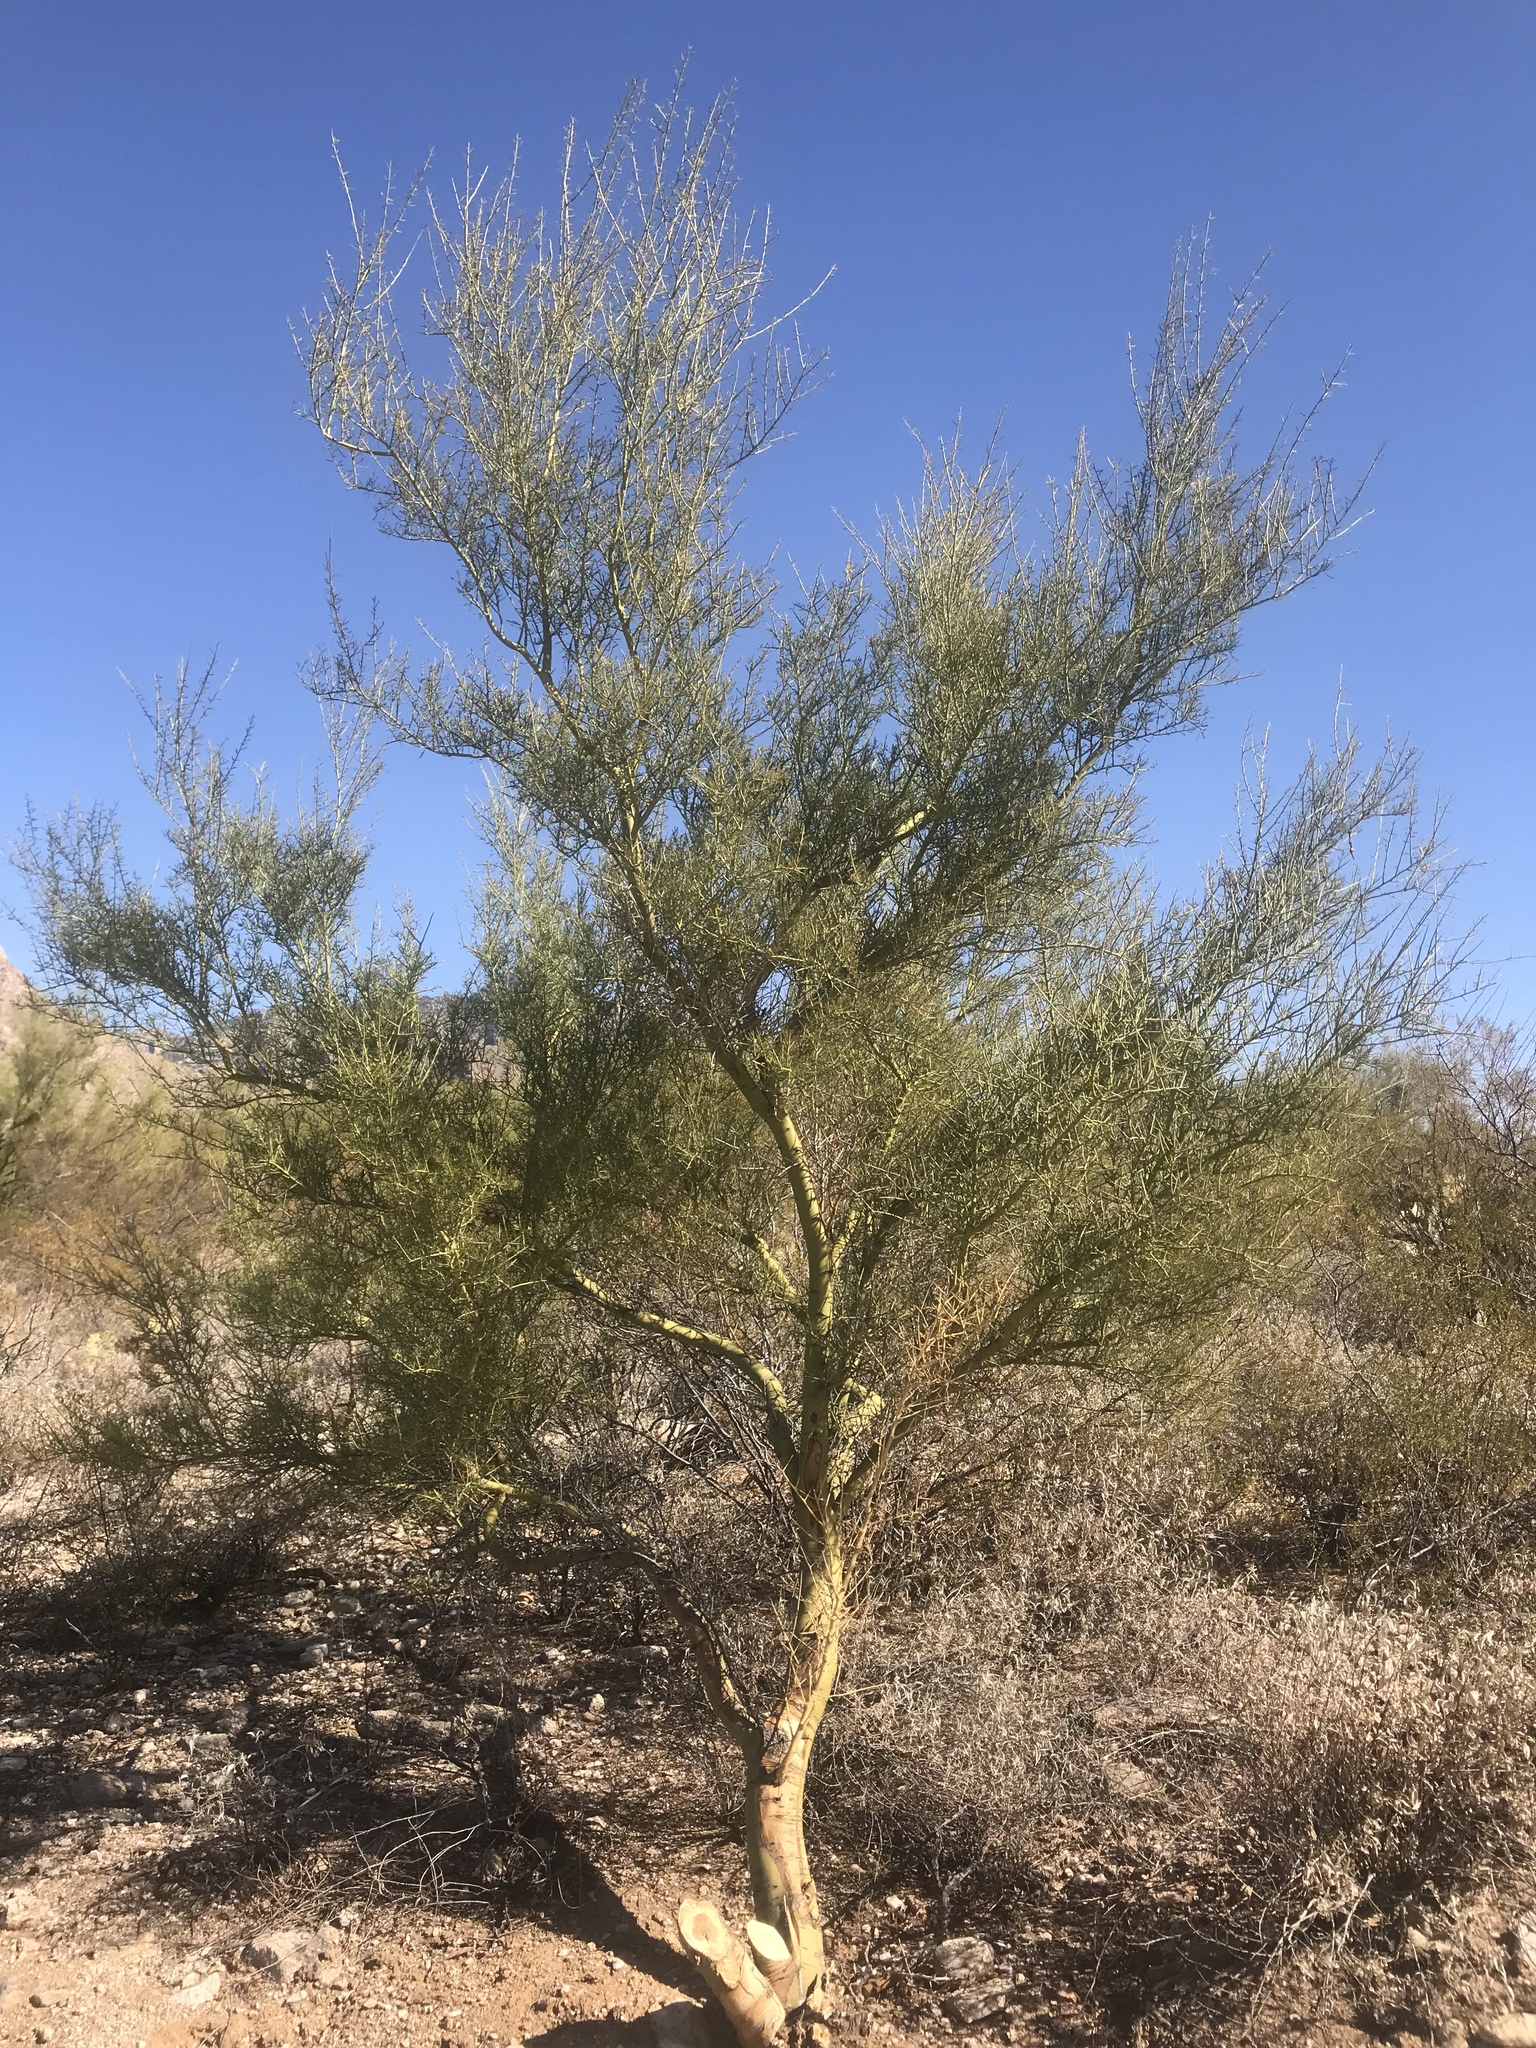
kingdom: Plantae
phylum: Tracheophyta
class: Magnoliopsida
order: Fabales
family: Fabaceae
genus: Parkinsonia
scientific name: Parkinsonia microphylla
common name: Yellow paloverde
